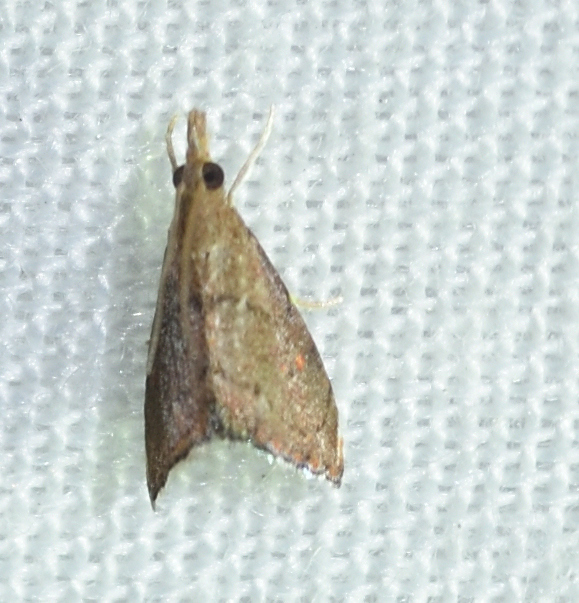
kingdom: Animalia
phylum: Arthropoda
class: Insecta
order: Lepidoptera
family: Crambidae
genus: Microcausta
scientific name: Microcausta flavipunctalis
